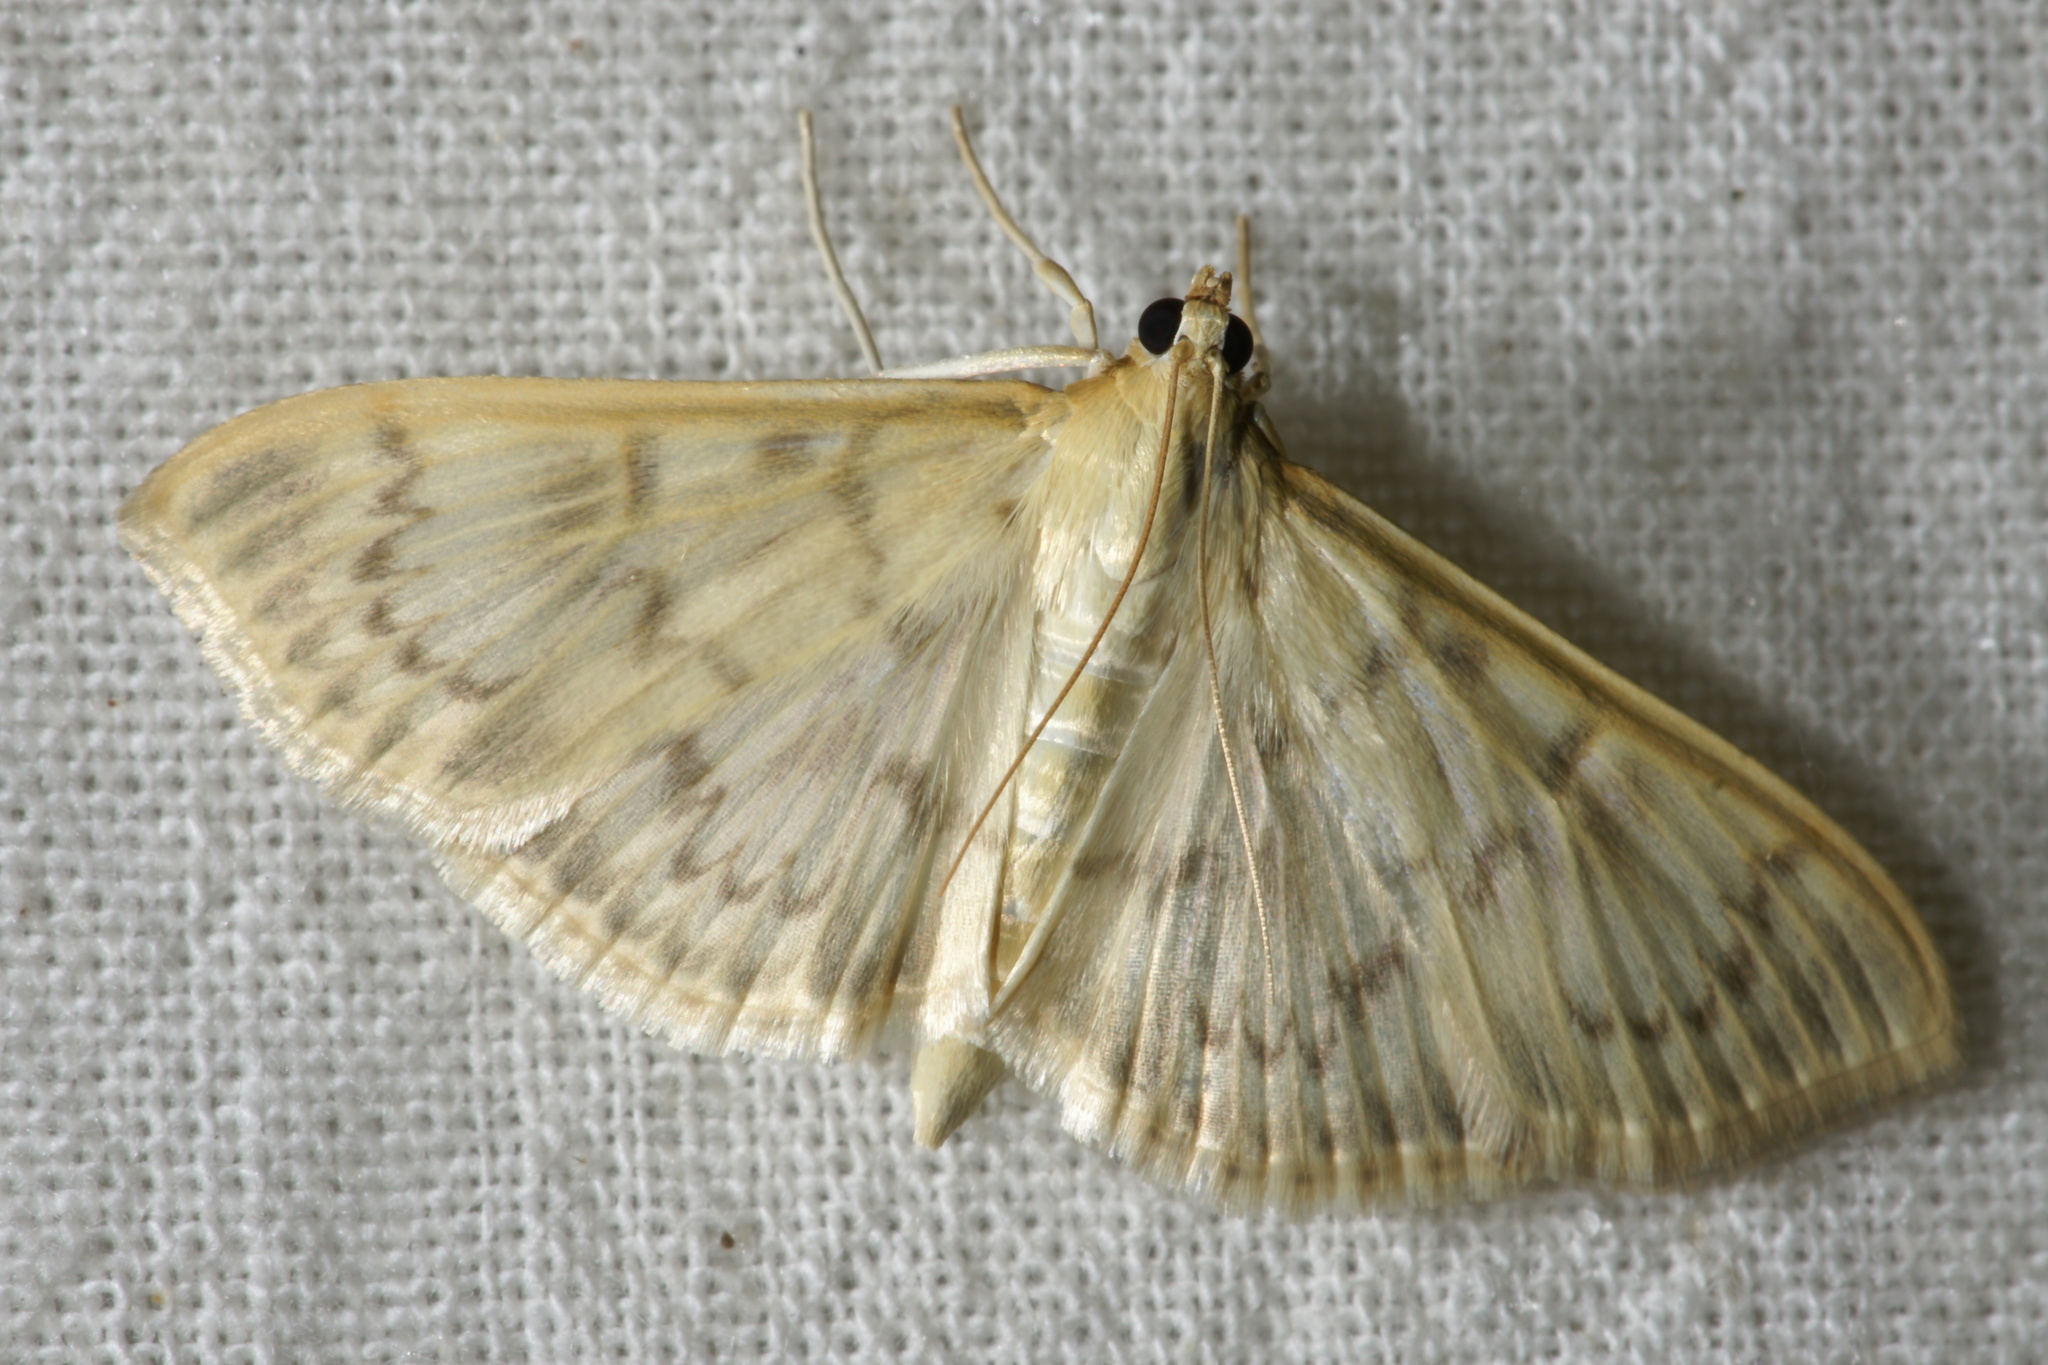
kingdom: Animalia
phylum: Arthropoda
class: Insecta
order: Lepidoptera
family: Crambidae
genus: Patania
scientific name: Patania ruralis
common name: Mother of pearl
